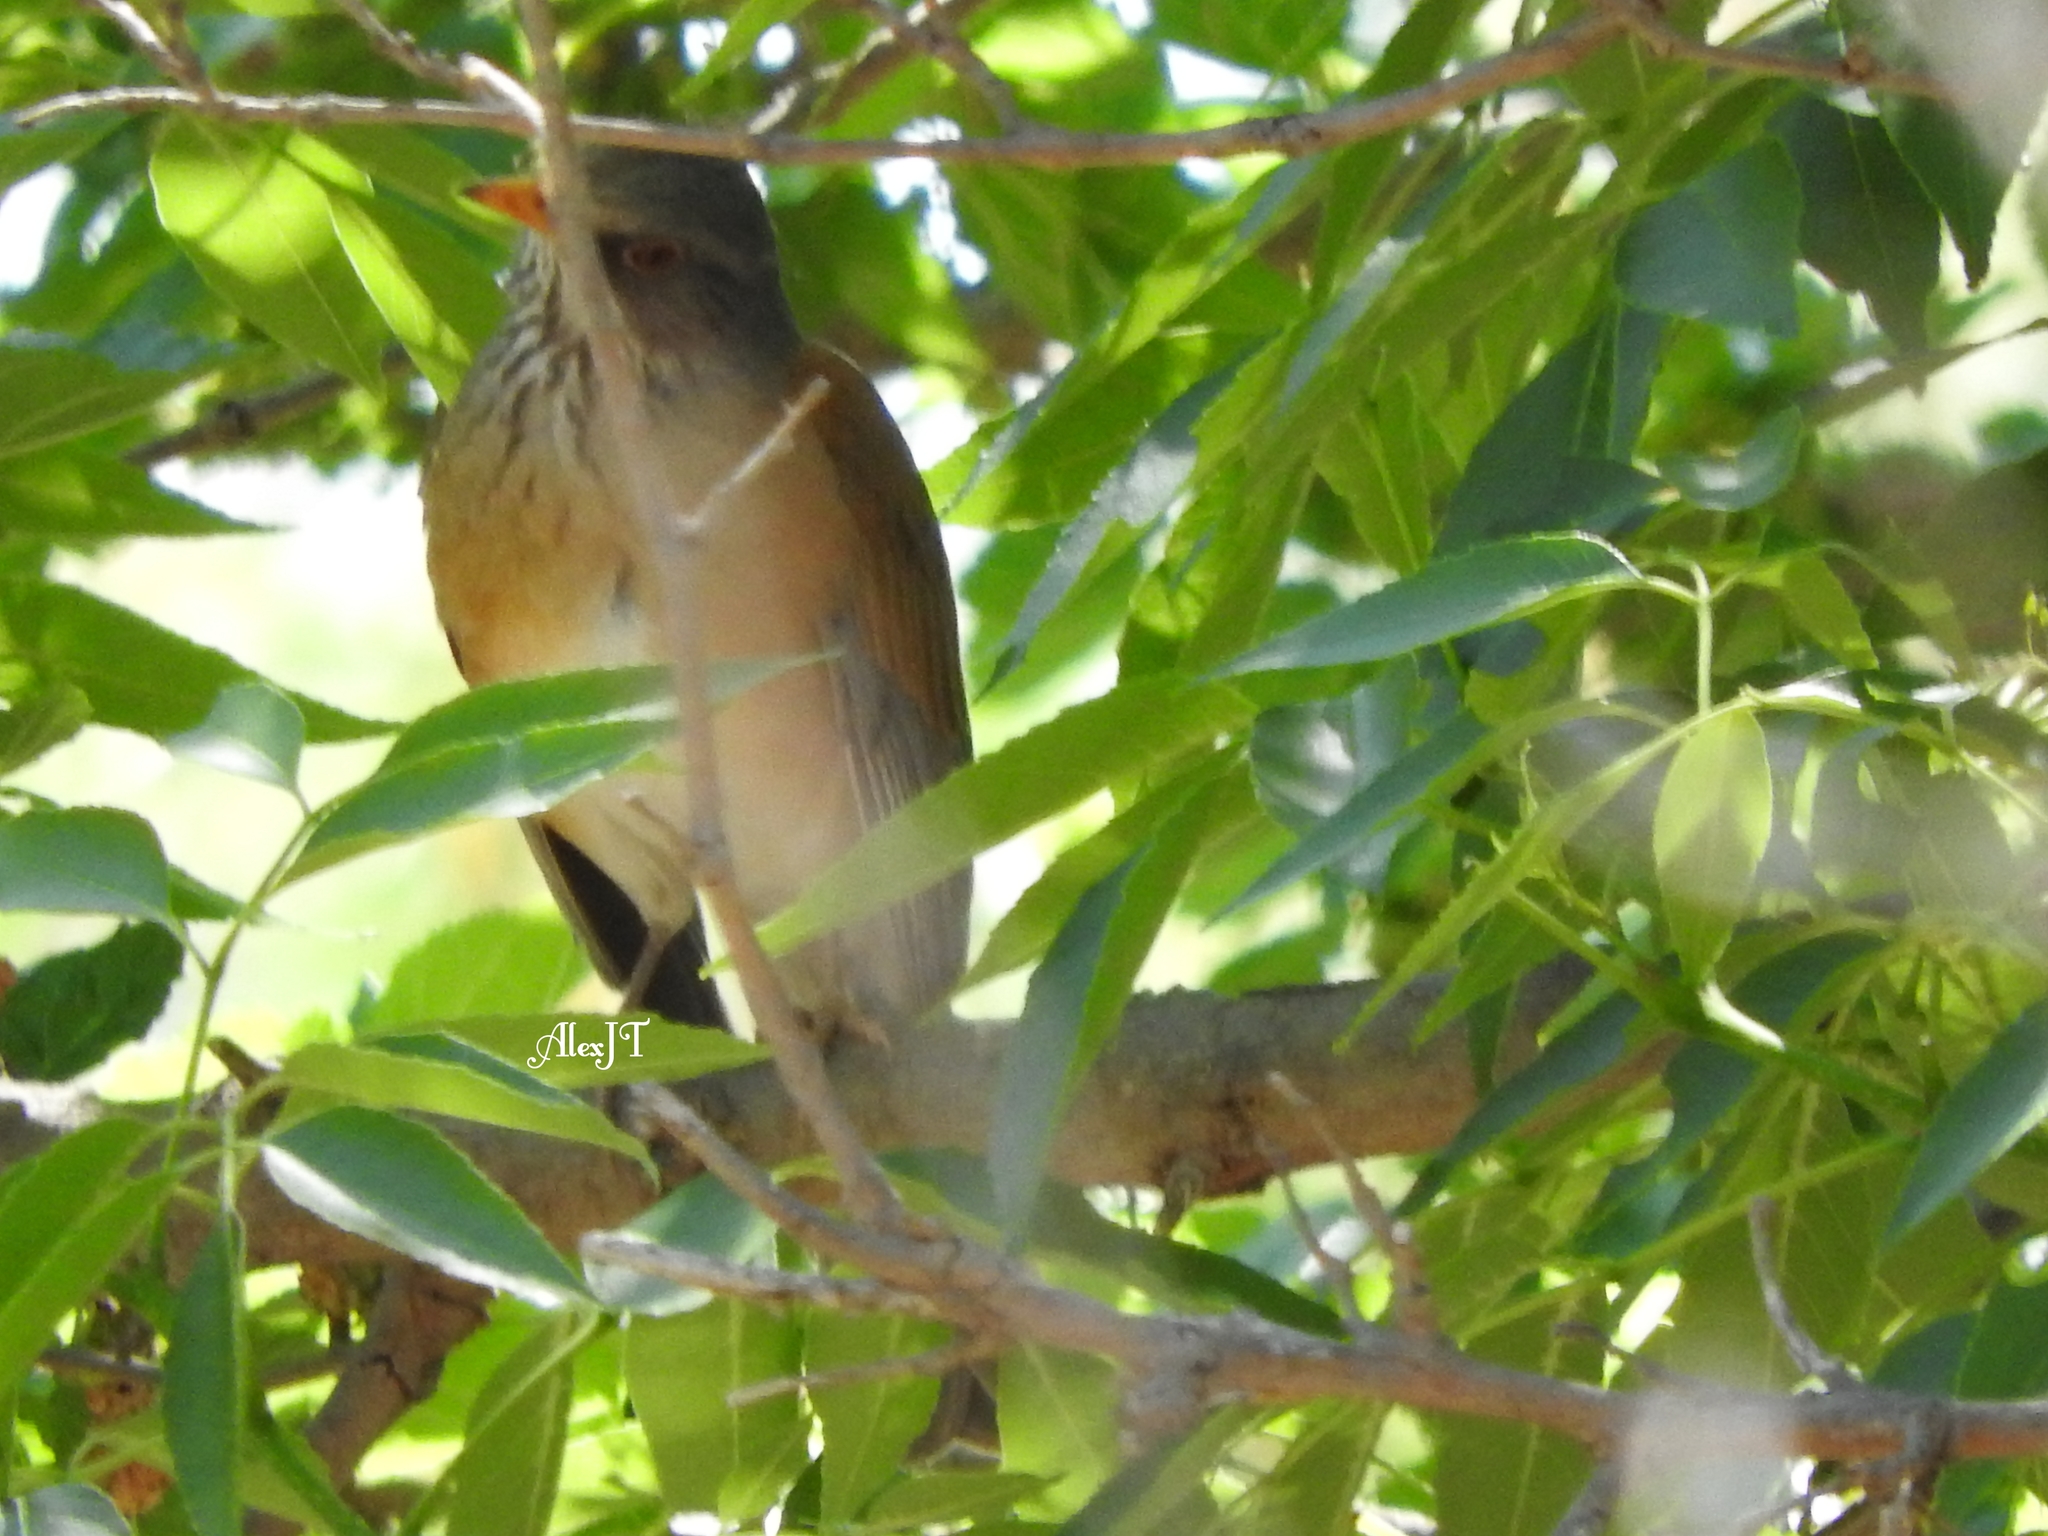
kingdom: Animalia
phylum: Chordata
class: Aves
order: Passeriformes
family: Turdidae
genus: Turdus
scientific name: Turdus rufopalliatus
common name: Rufous-backed robin
